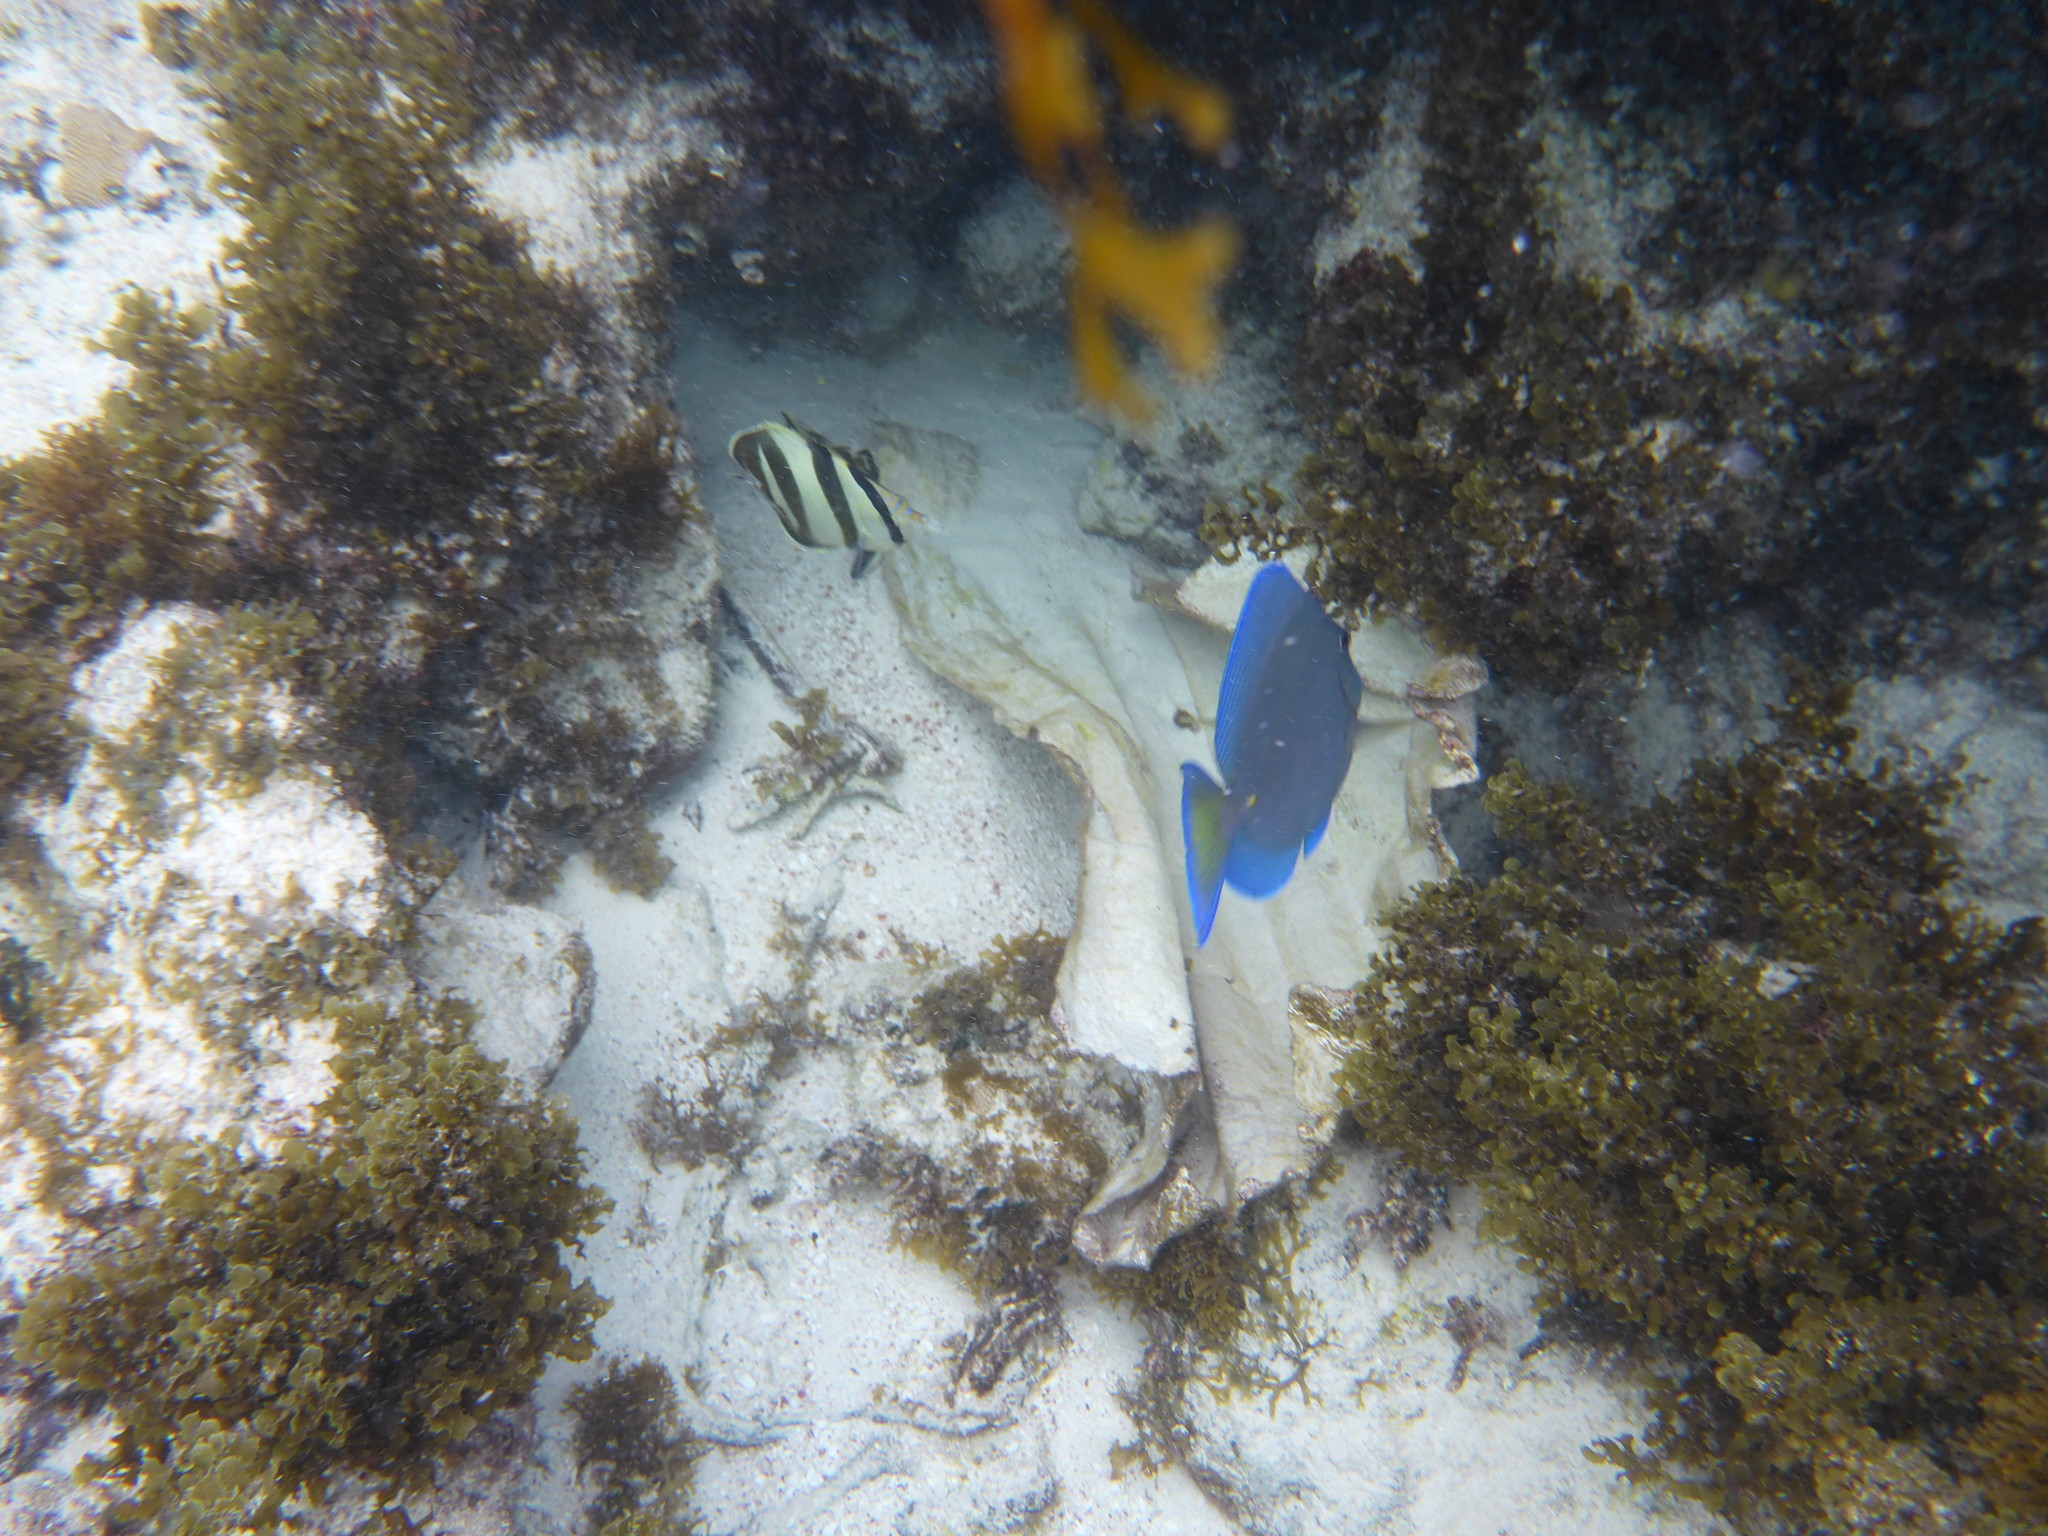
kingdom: Animalia
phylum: Chordata
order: Perciformes
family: Acanthuridae
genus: Acanthurus
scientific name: Acanthurus coeruleus
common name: Blue tang
